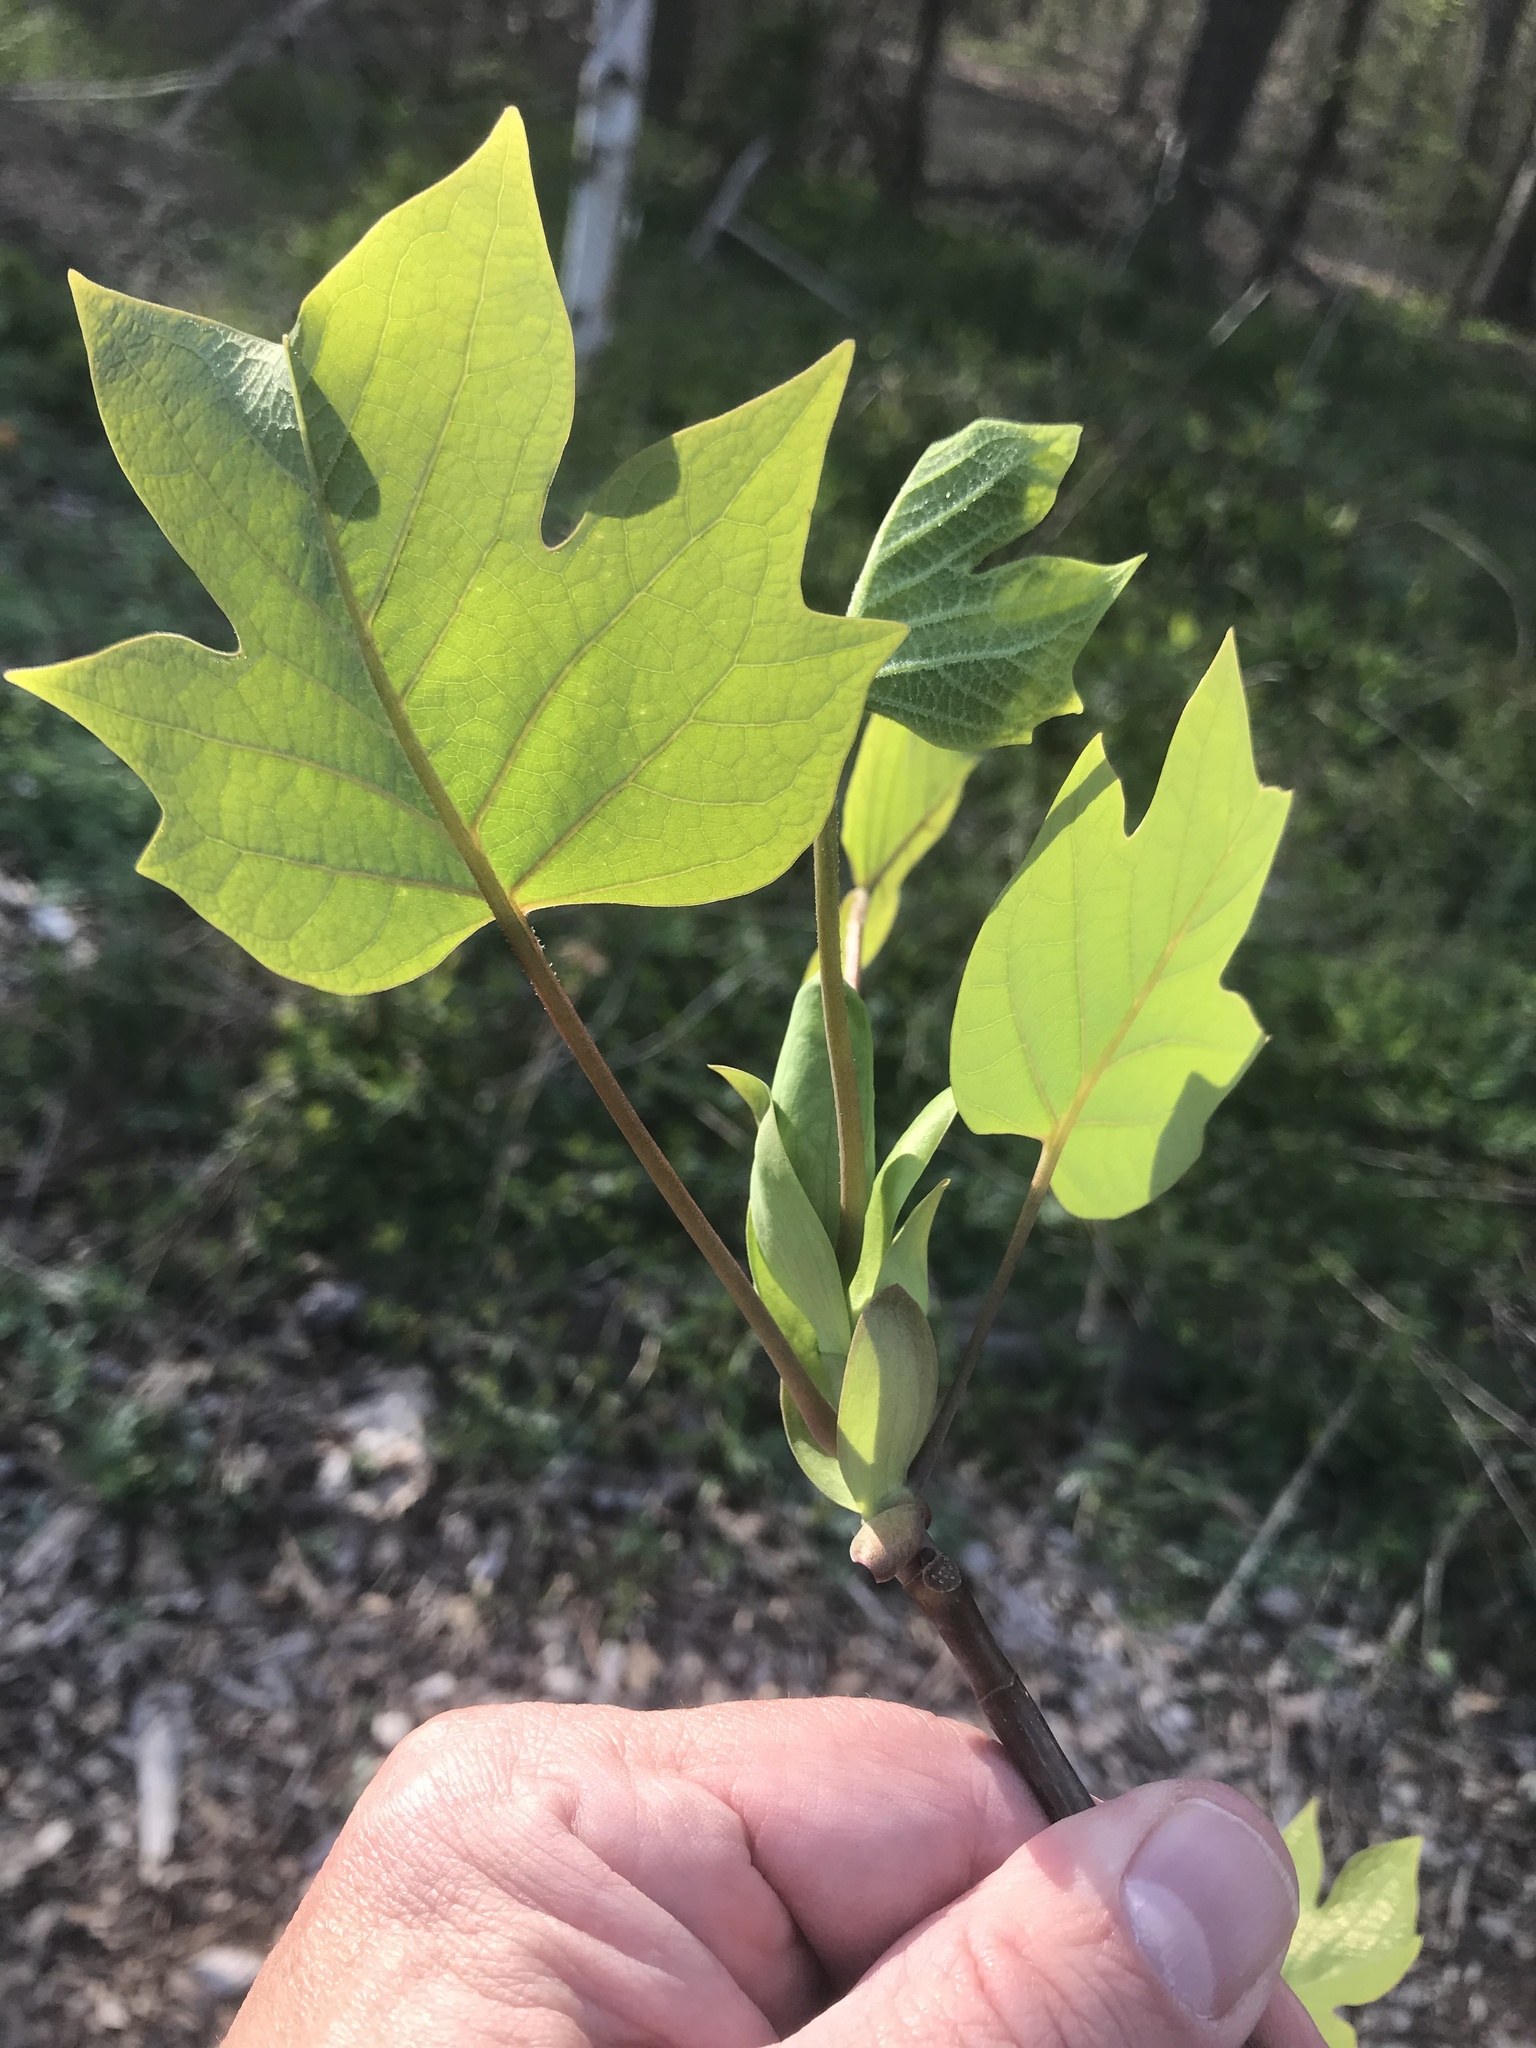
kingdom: Plantae
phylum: Tracheophyta
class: Magnoliopsida
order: Magnoliales
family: Magnoliaceae
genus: Liriodendron
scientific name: Liriodendron tulipifera
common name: Tulip tree
